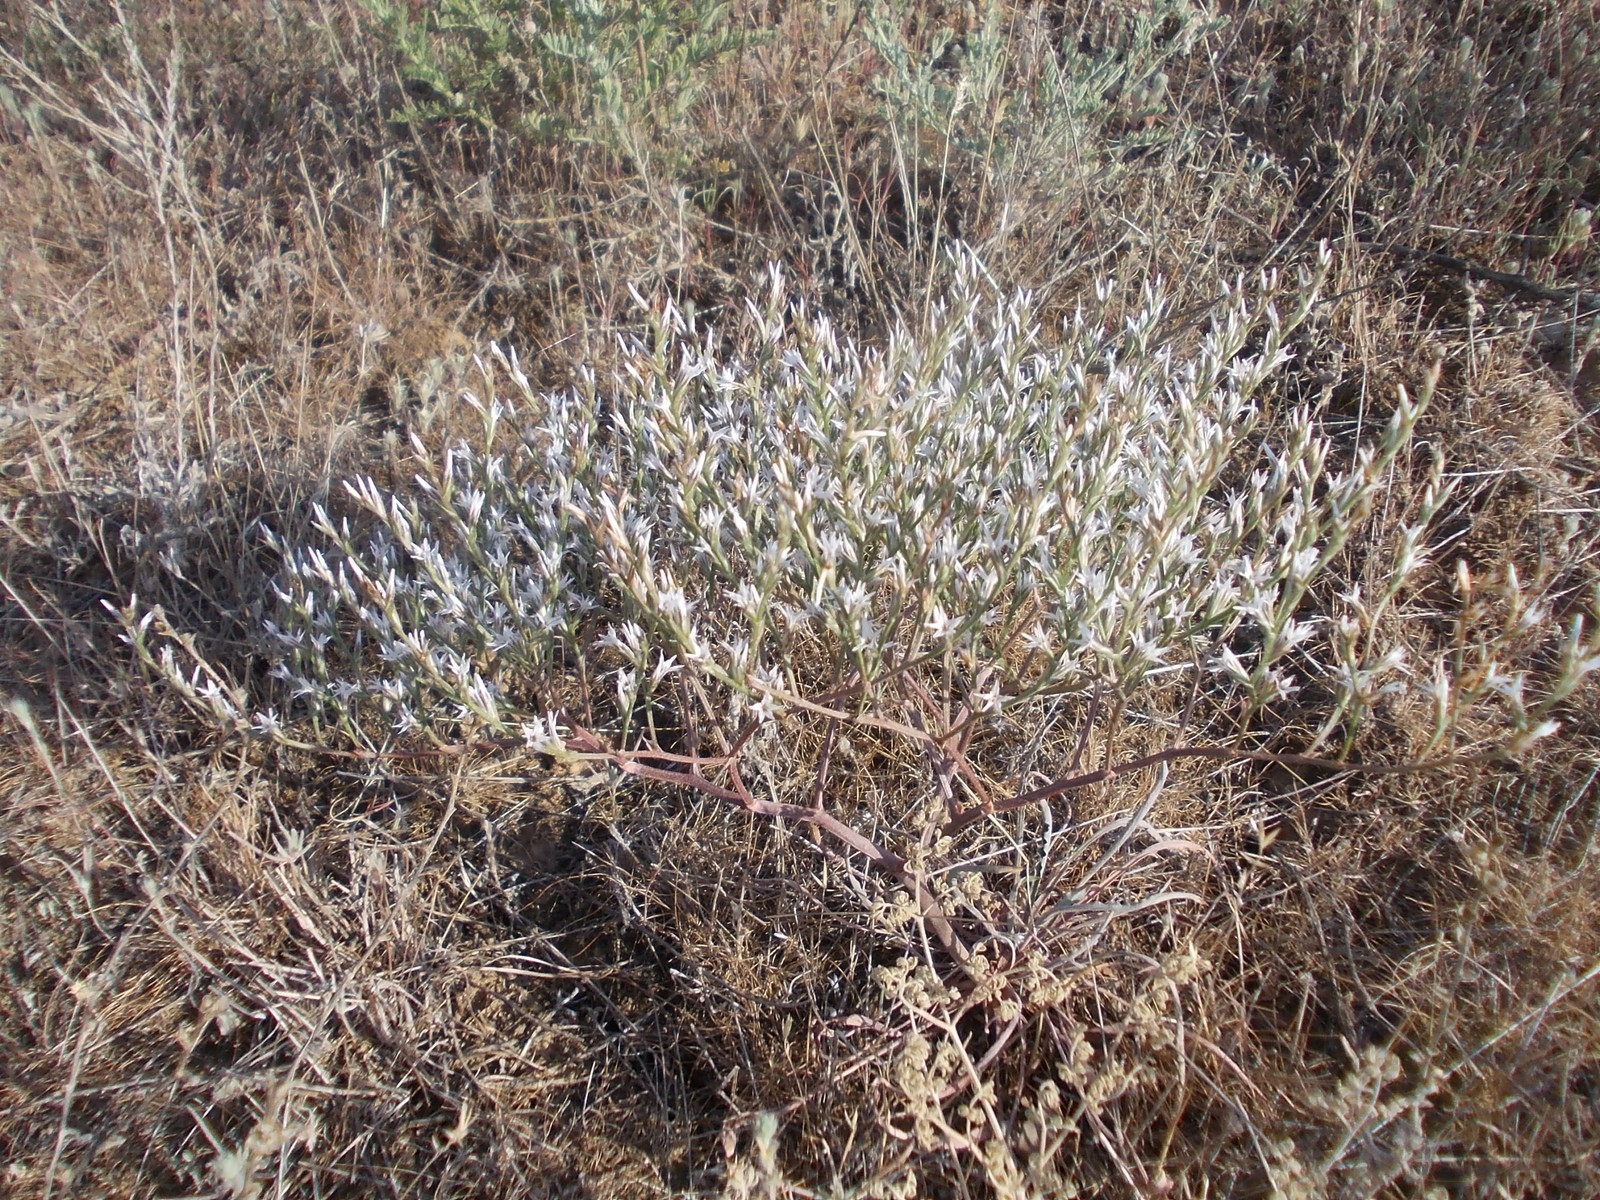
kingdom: Plantae
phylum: Tracheophyta
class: Magnoliopsida
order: Caryophyllales
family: Plumbaginaceae
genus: Goniolimon
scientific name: Goniolimon rubellum
